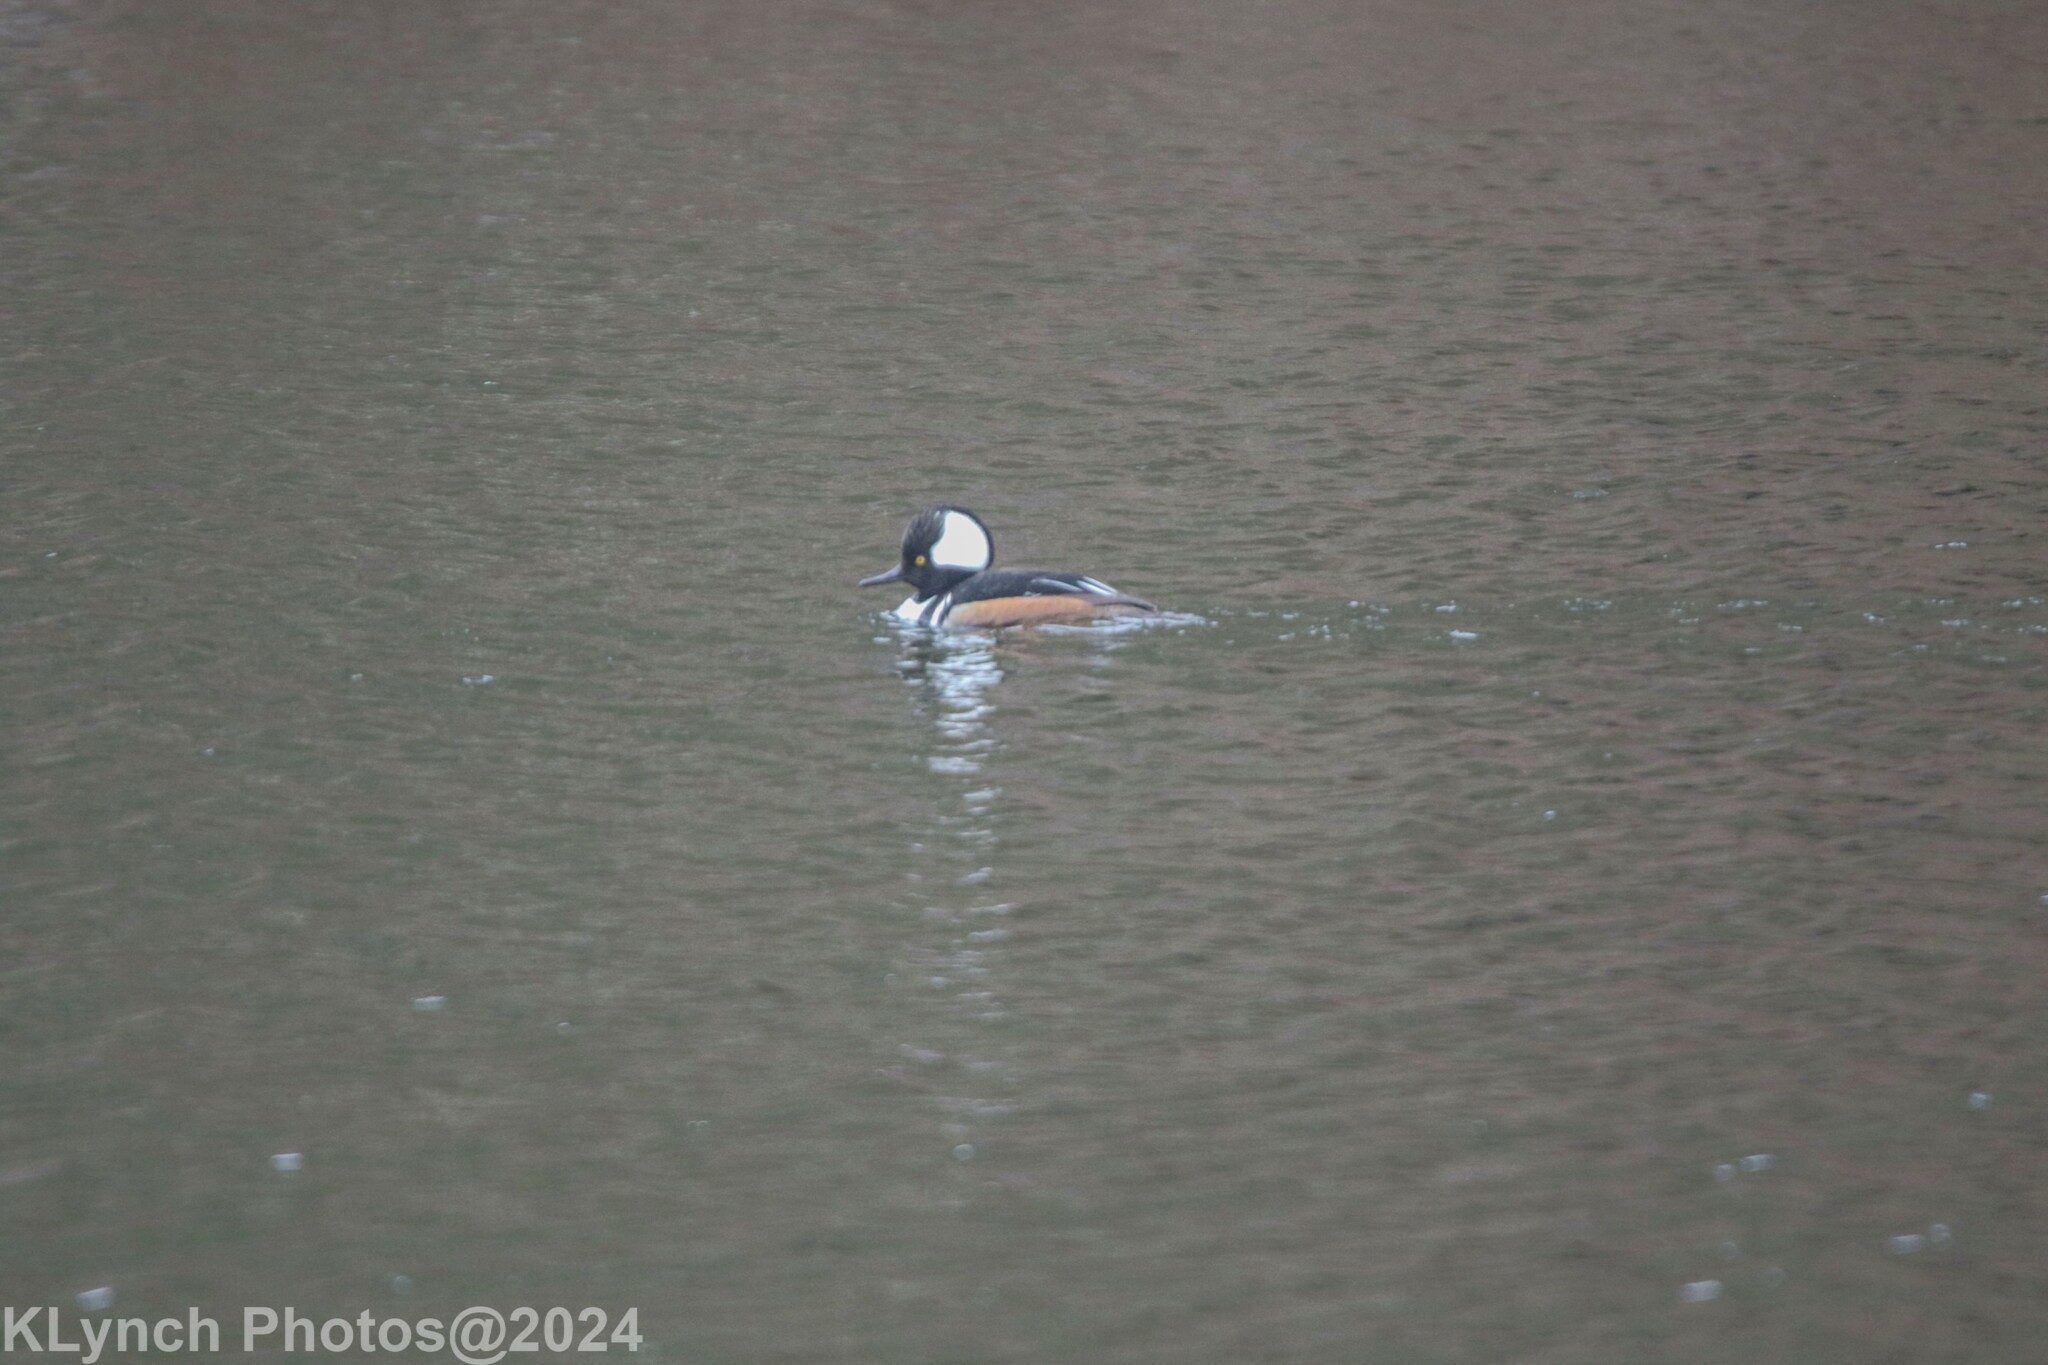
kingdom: Animalia
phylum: Chordata
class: Aves
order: Anseriformes
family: Anatidae
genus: Lophodytes
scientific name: Lophodytes cucullatus
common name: Hooded merganser
